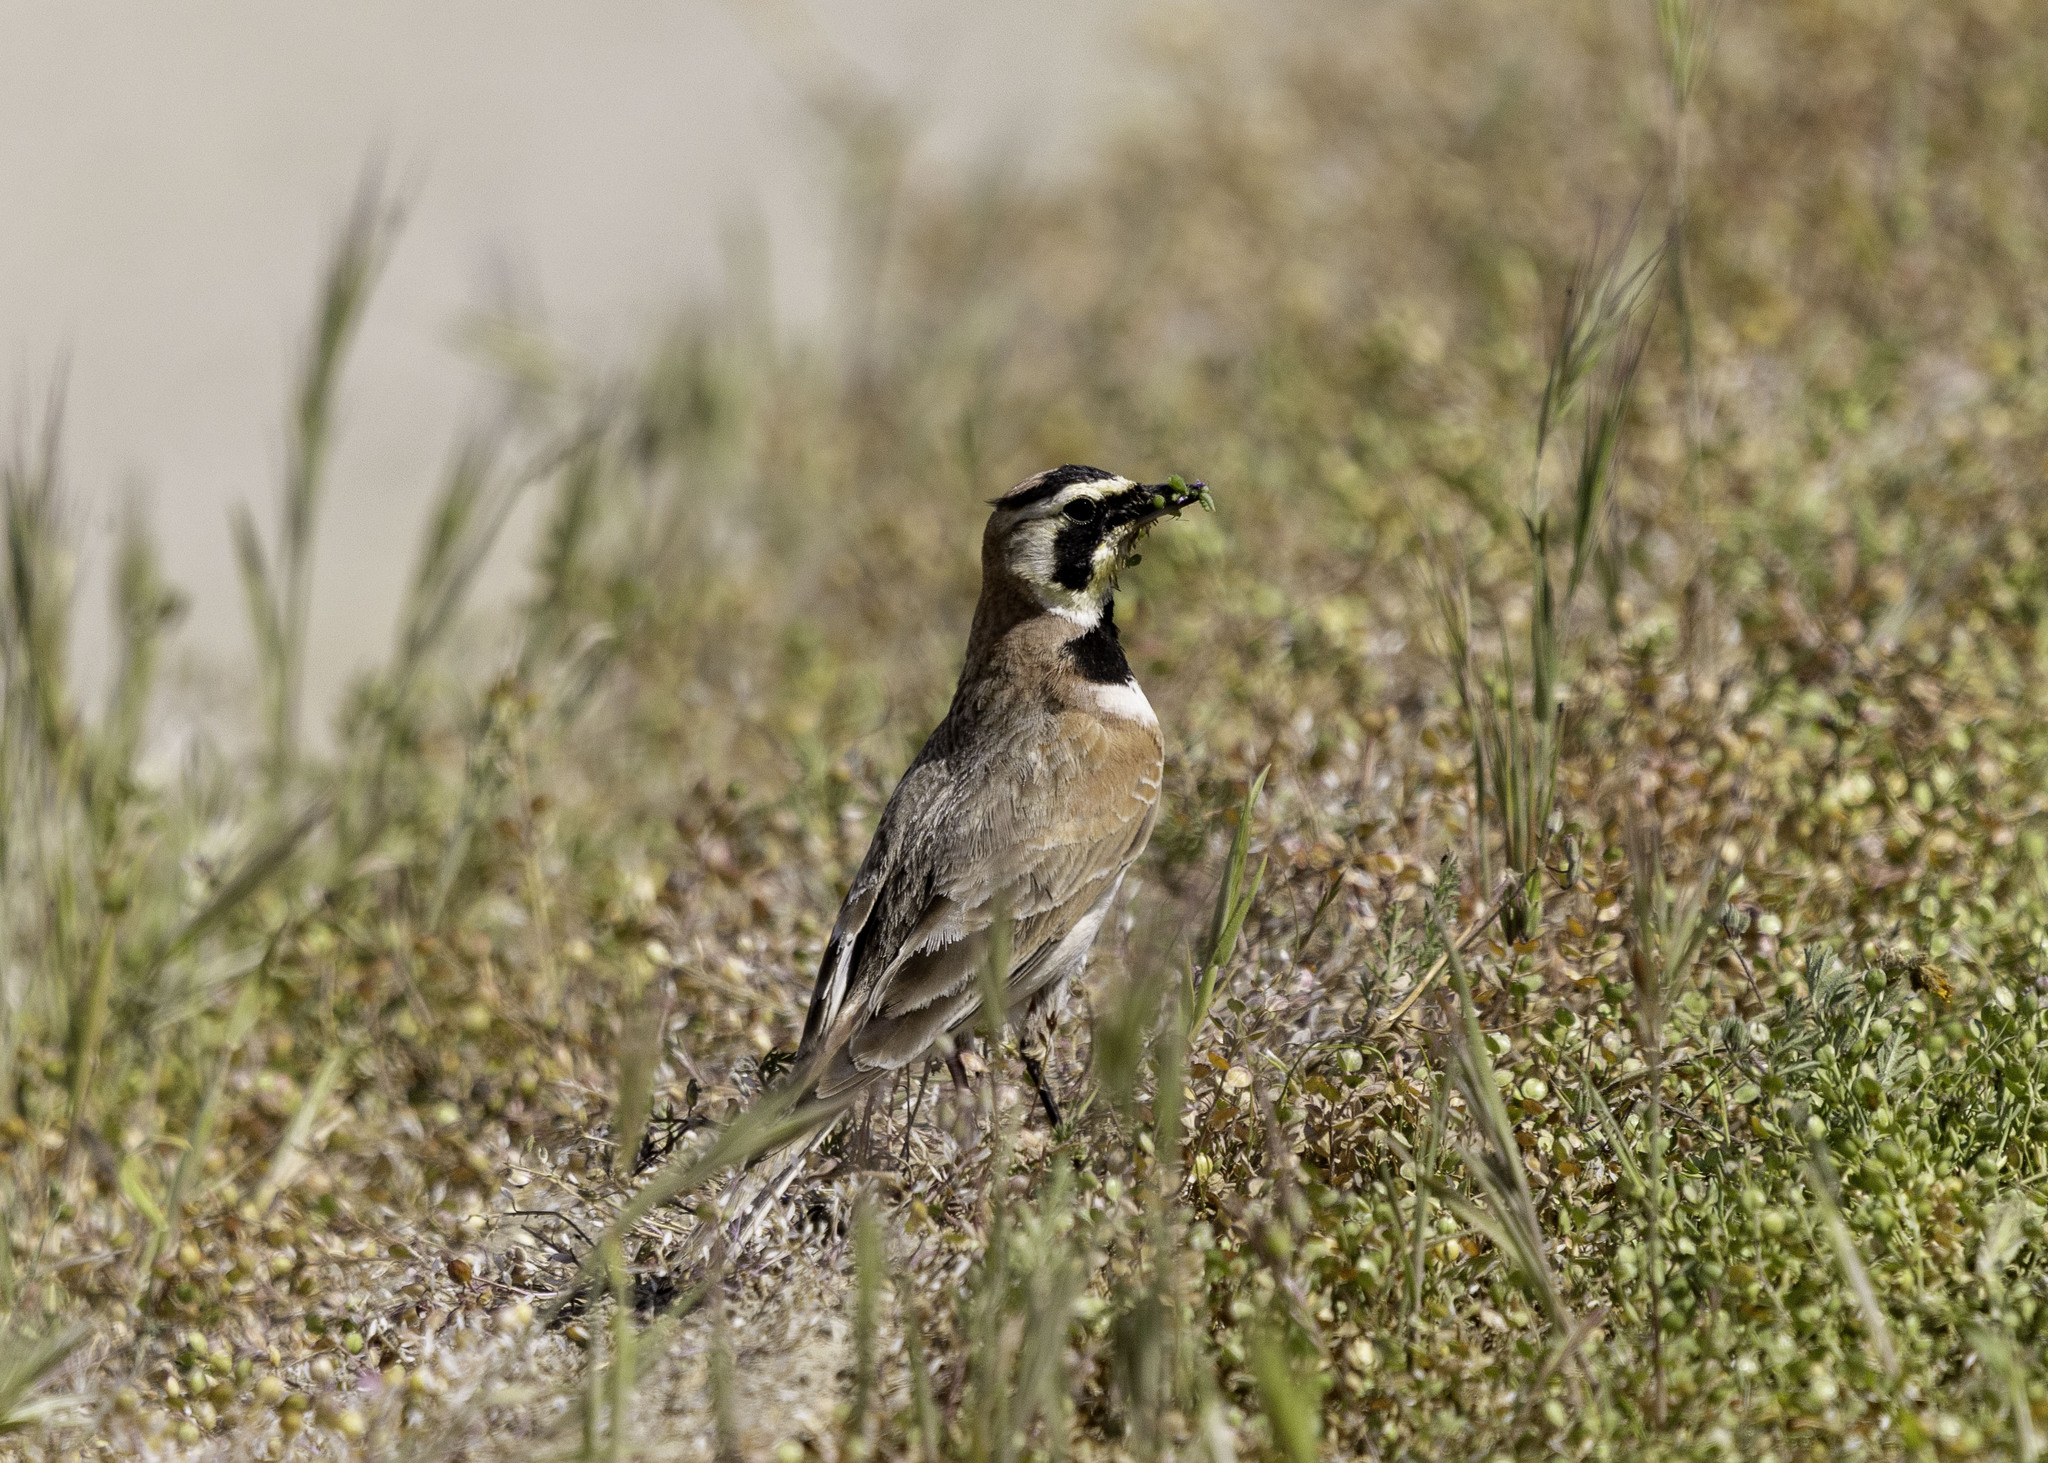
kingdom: Animalia
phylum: Chordata
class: Aves
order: Passeriformes
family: Alaudidae
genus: Eremophila
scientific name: Eremophila alpestris
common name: Horned lark
